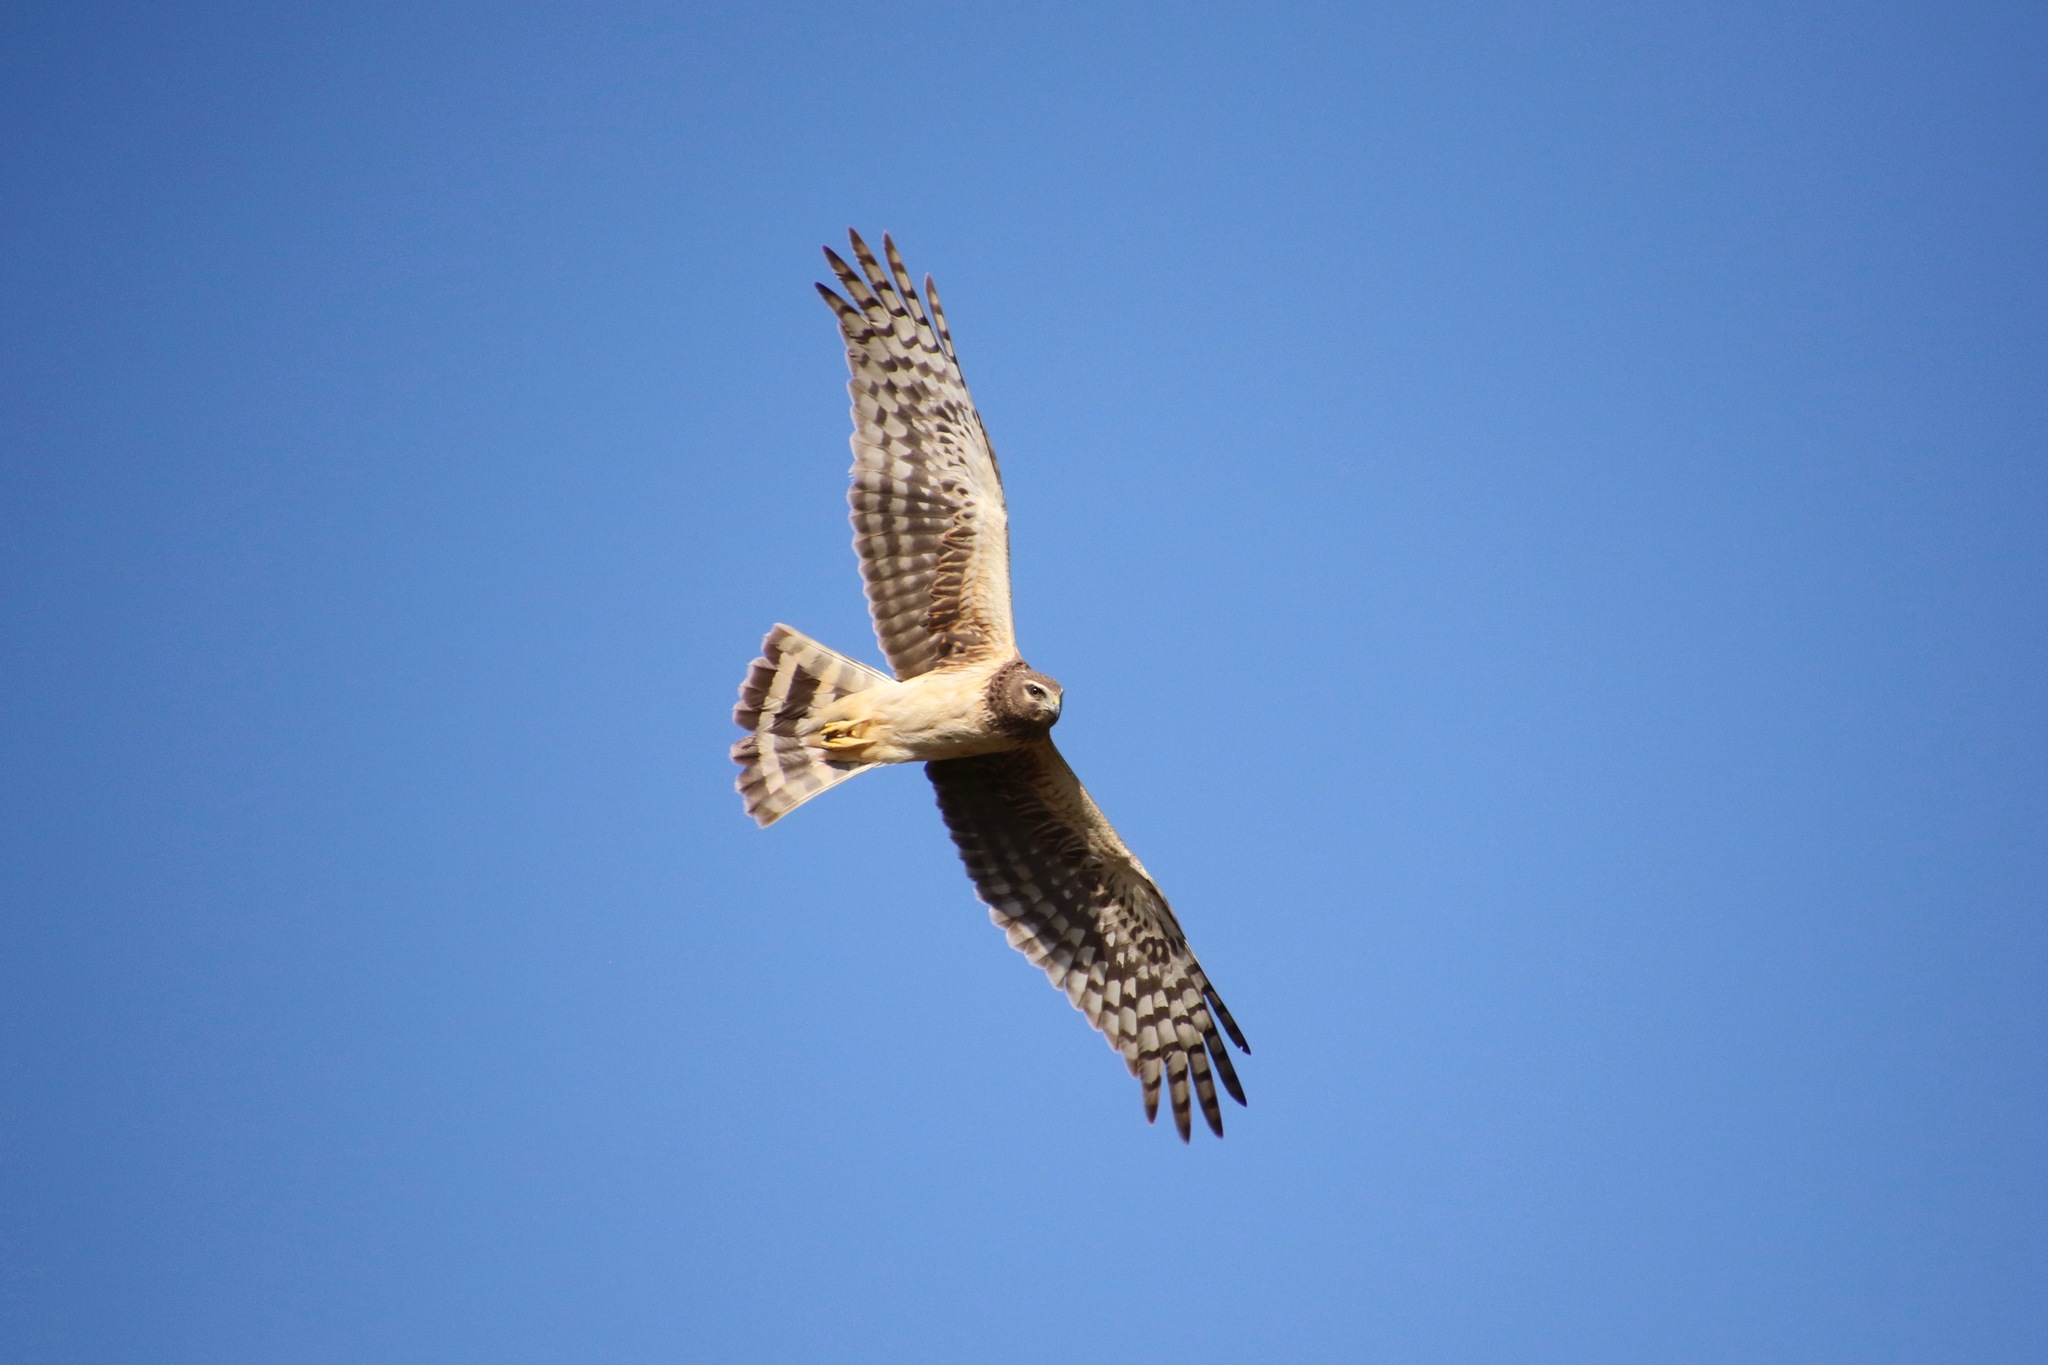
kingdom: Animalia
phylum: Chordata
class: Aves
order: Accipitriformes
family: Accipitridae
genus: Circus
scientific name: Circus cyaneus
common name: Hen harrier
